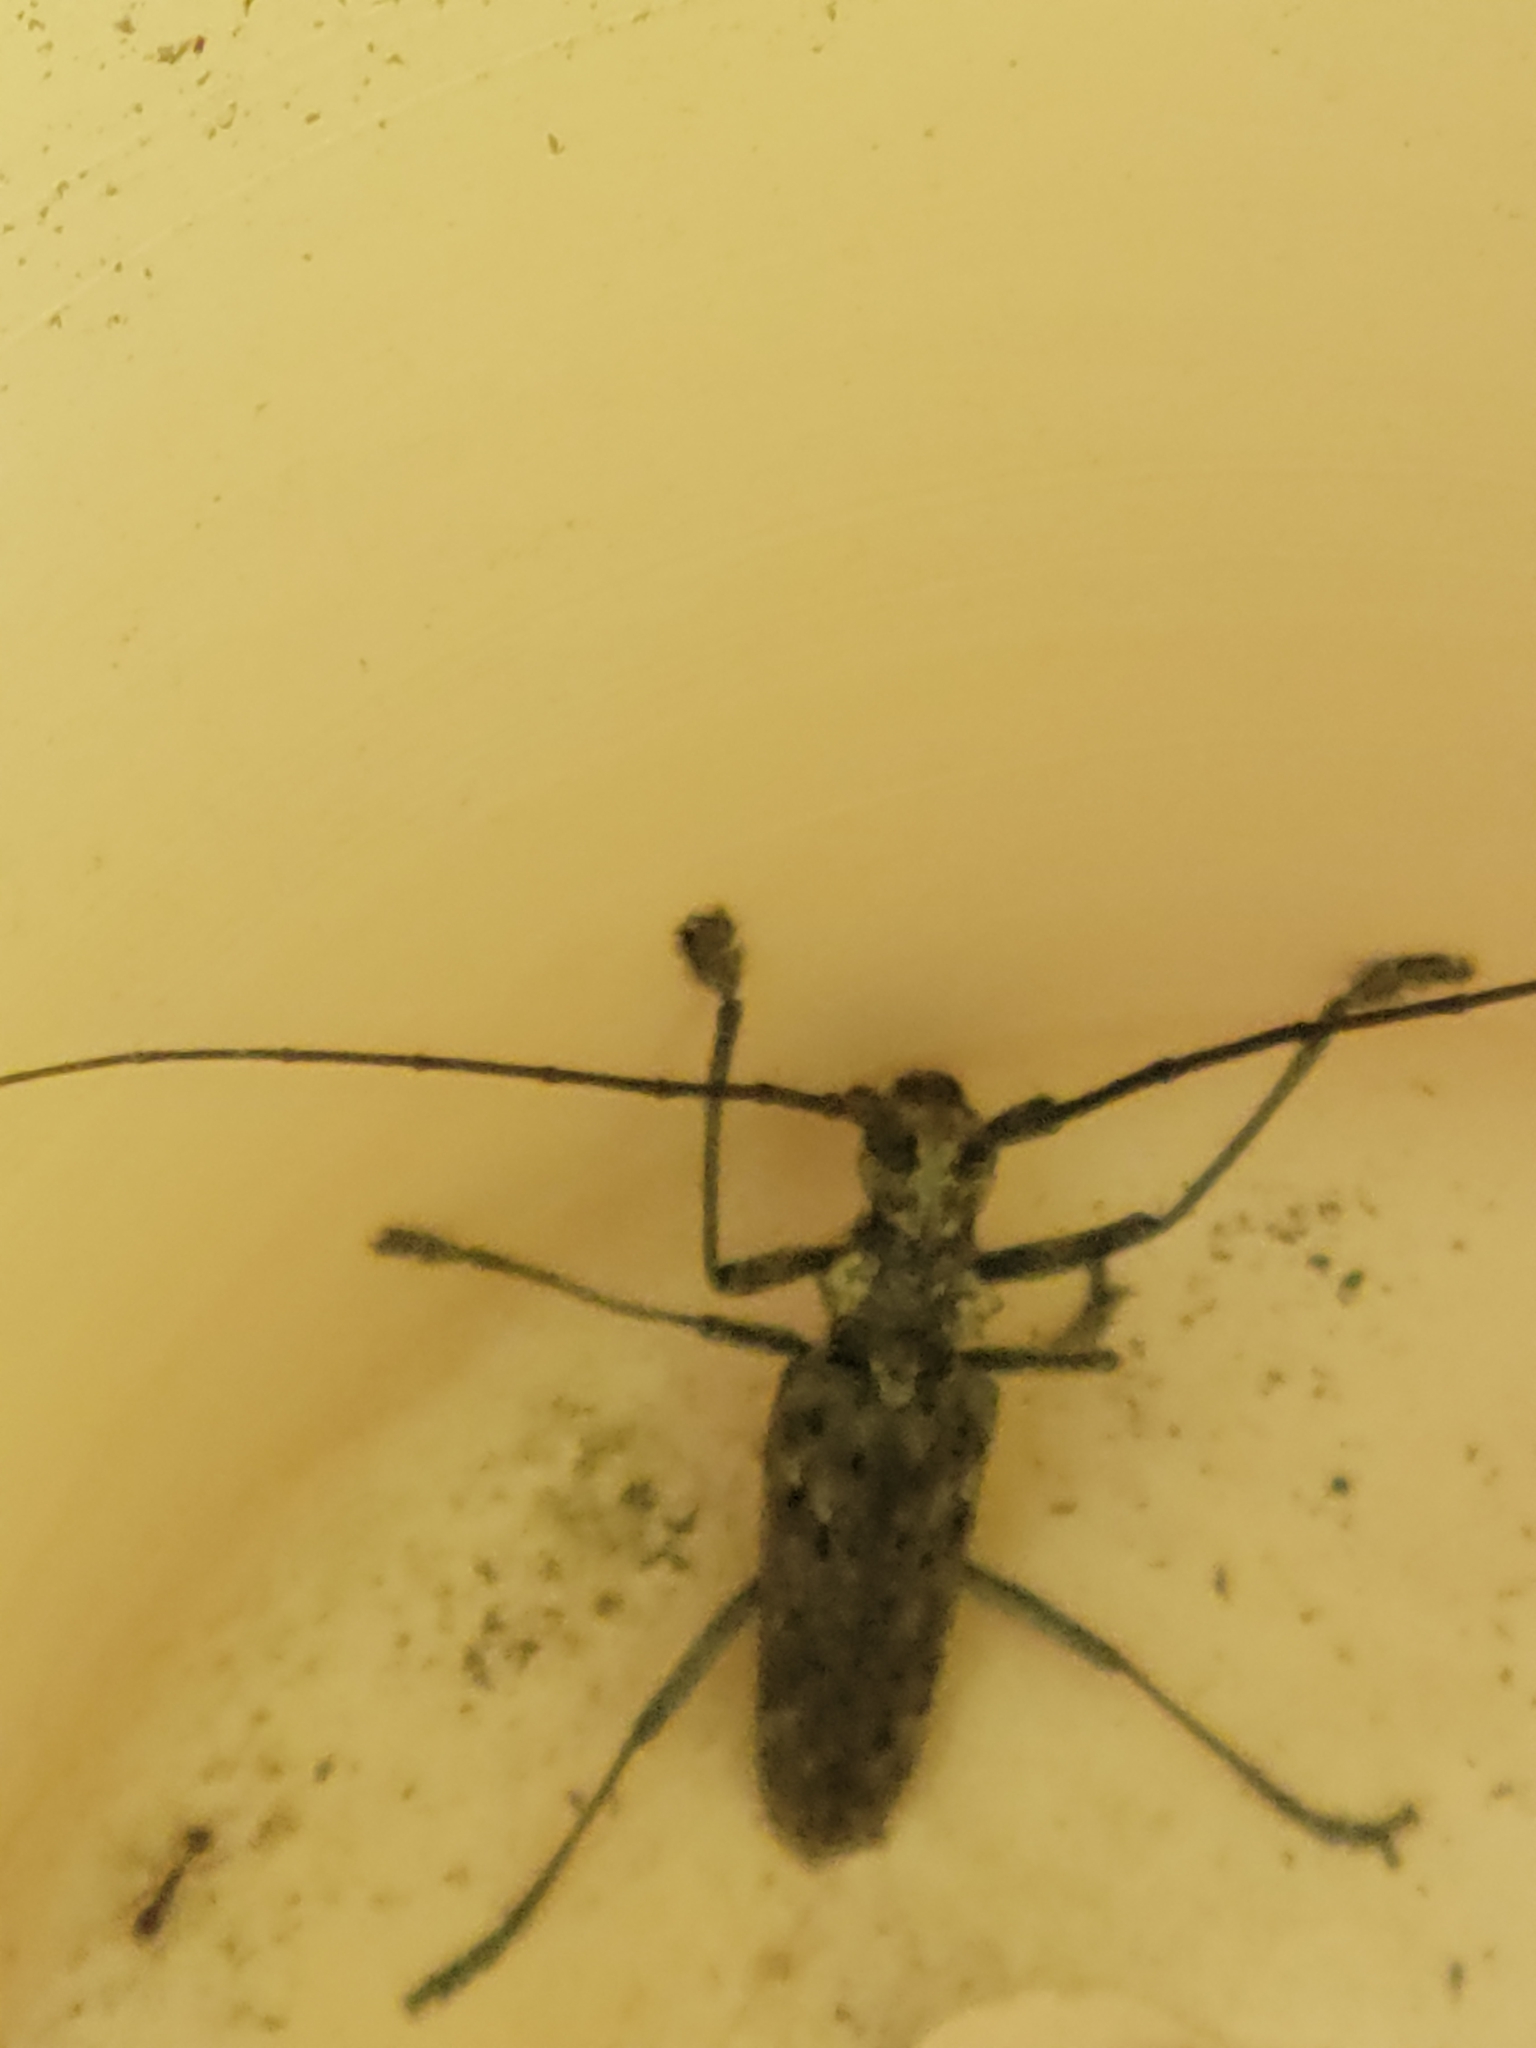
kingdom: Animalia
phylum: Arthropoda
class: Insecta
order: Coleoptera
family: Cerambycidae
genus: Monochamus
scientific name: Monochamus notatus
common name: Northeastern pine sawyer beetle
